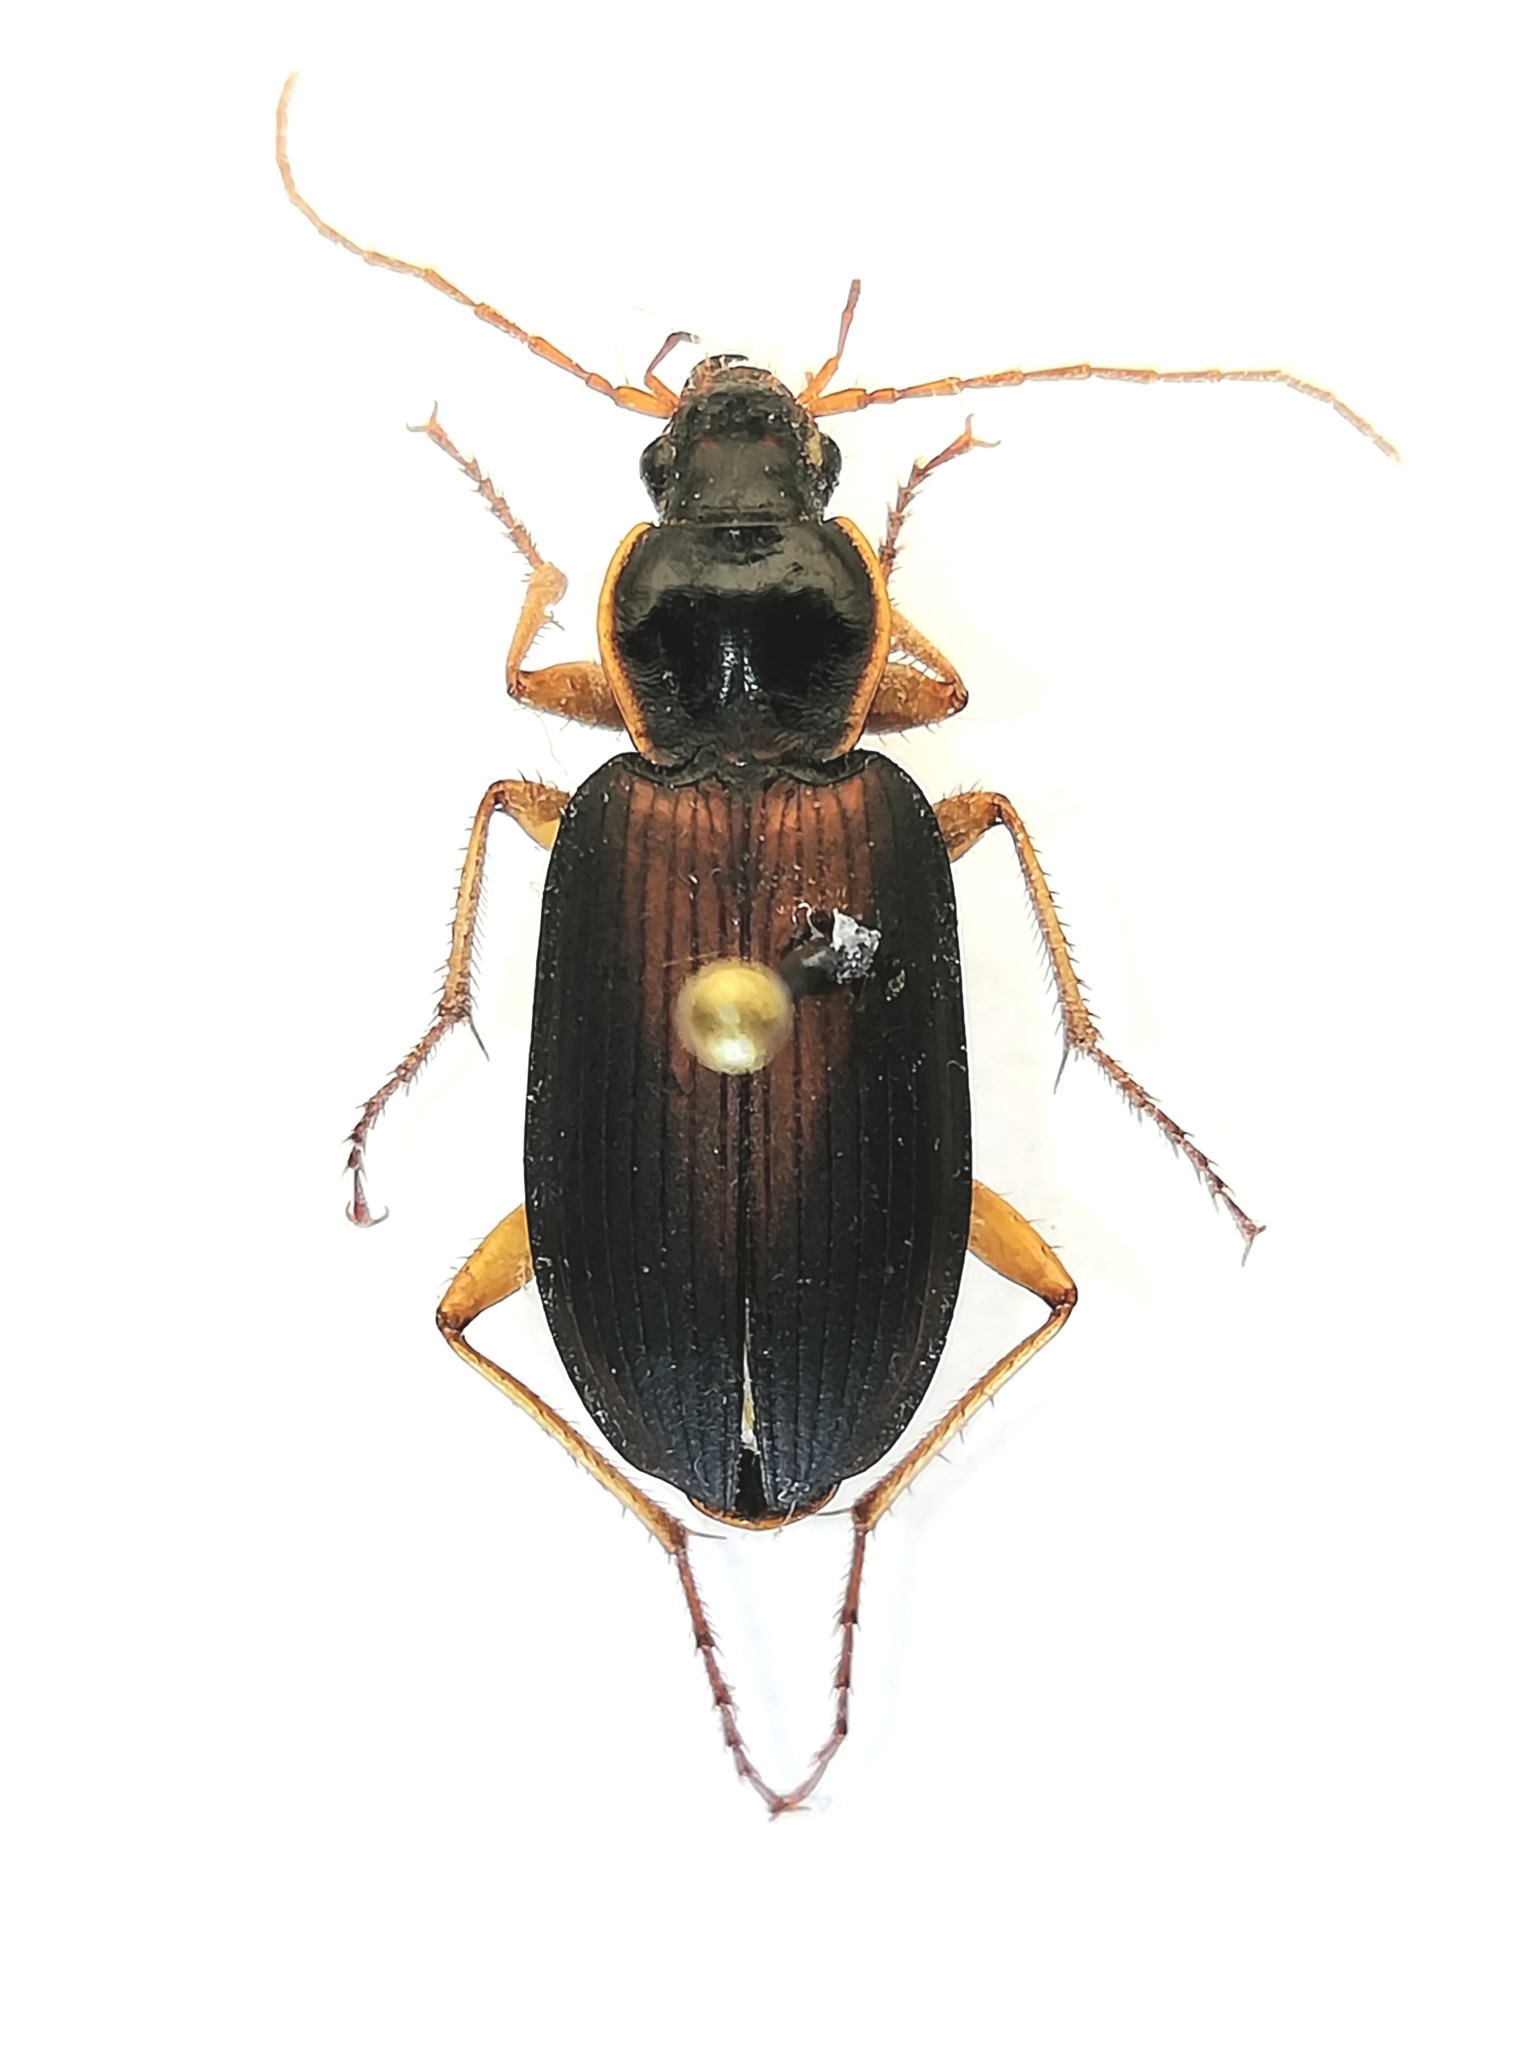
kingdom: Animalia
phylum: Arthropoda
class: Insecta
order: Coleoptera
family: Carabidae
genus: Dolichus
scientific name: Dolichus halensis
